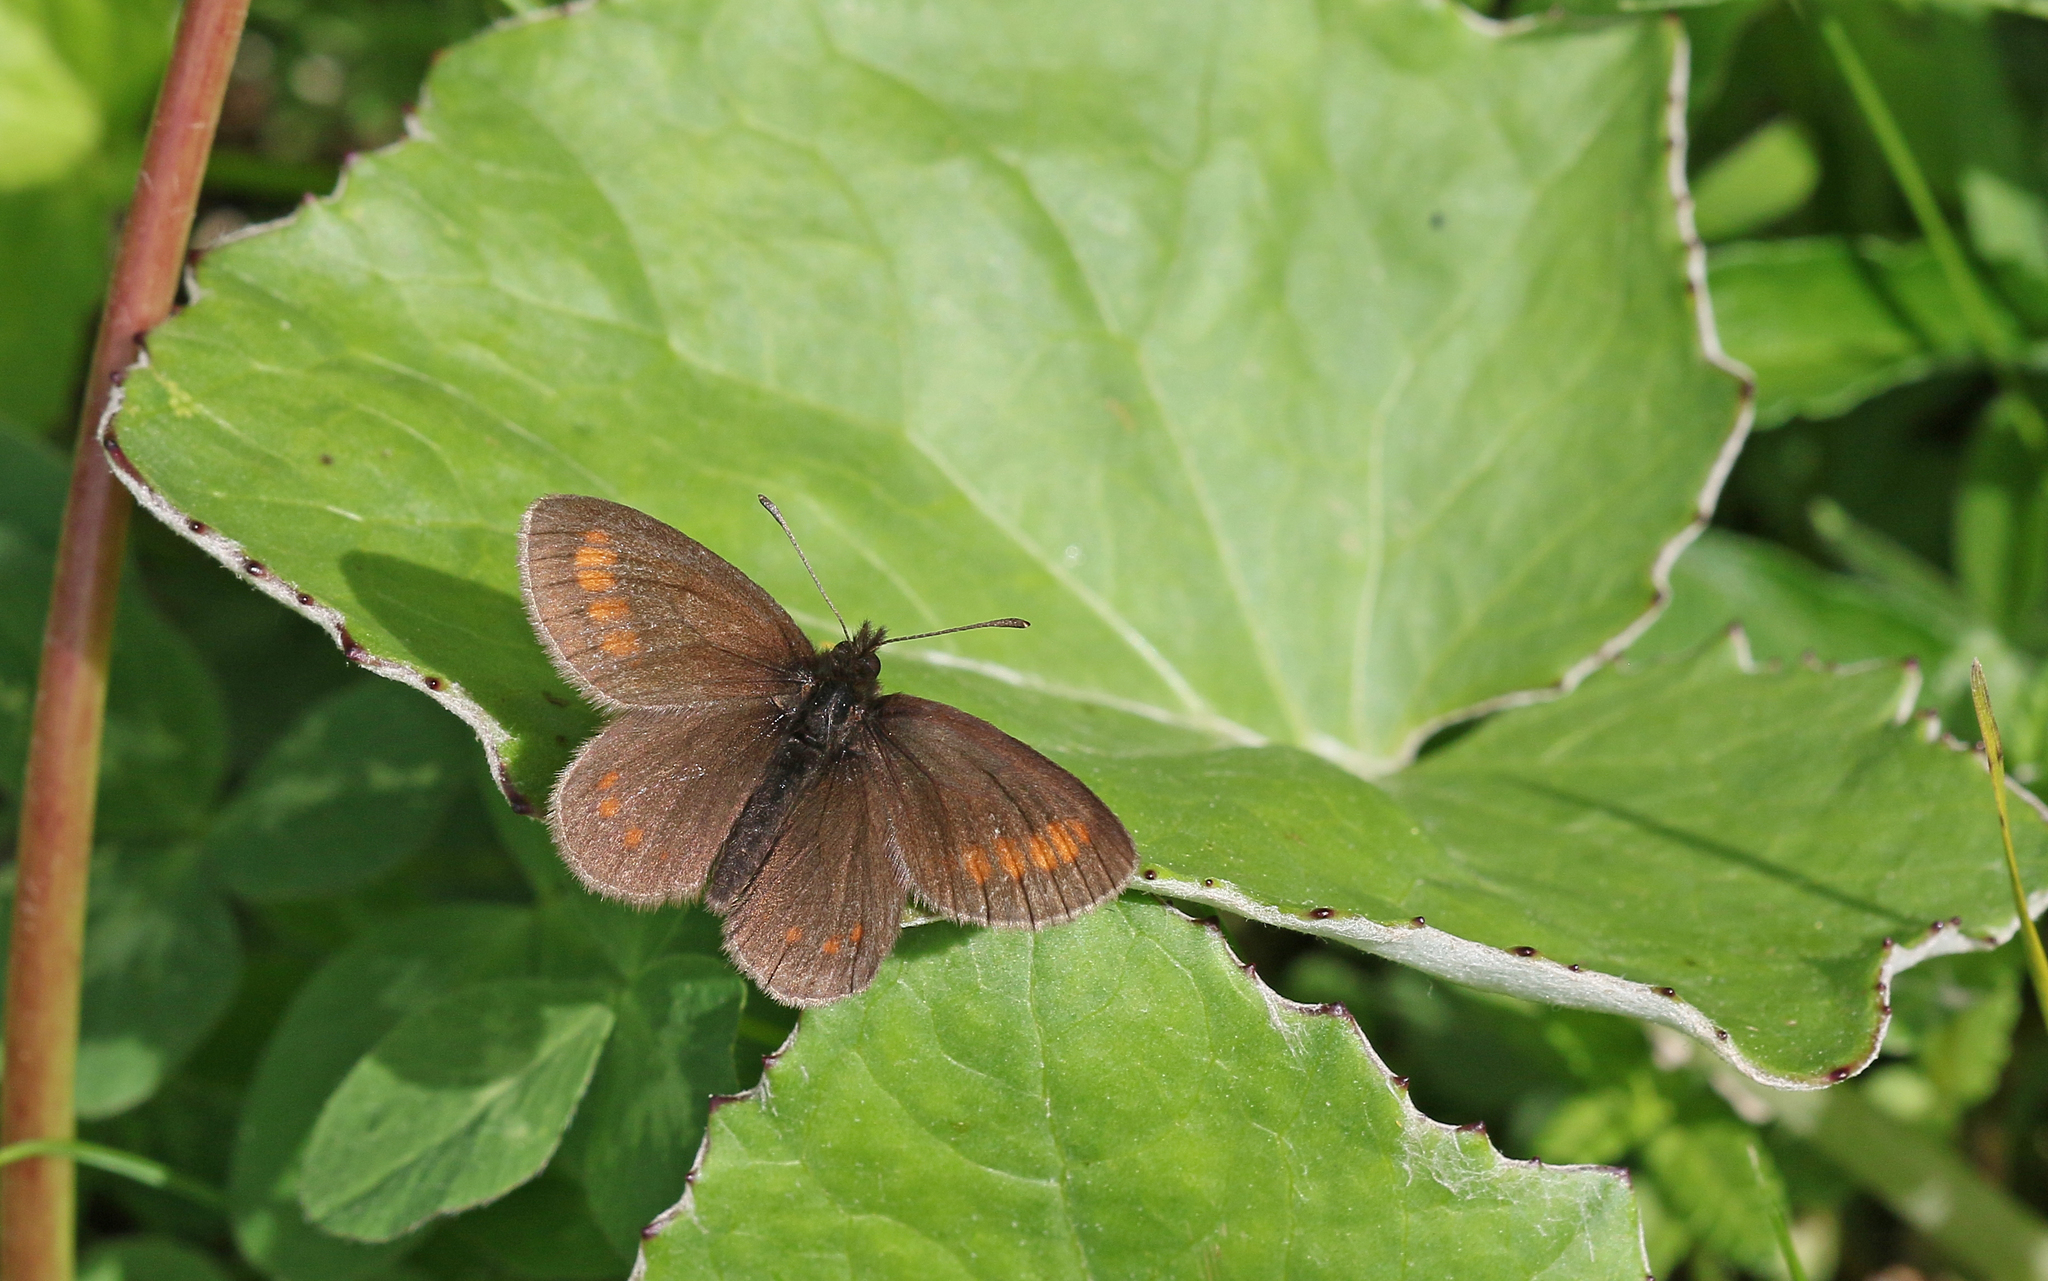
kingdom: Animalia
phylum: Arthropoda
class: Insecta
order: Lepidoptera
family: Nymphalidae
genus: Erebia
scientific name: Erebia pharte
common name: Blind ringlet
